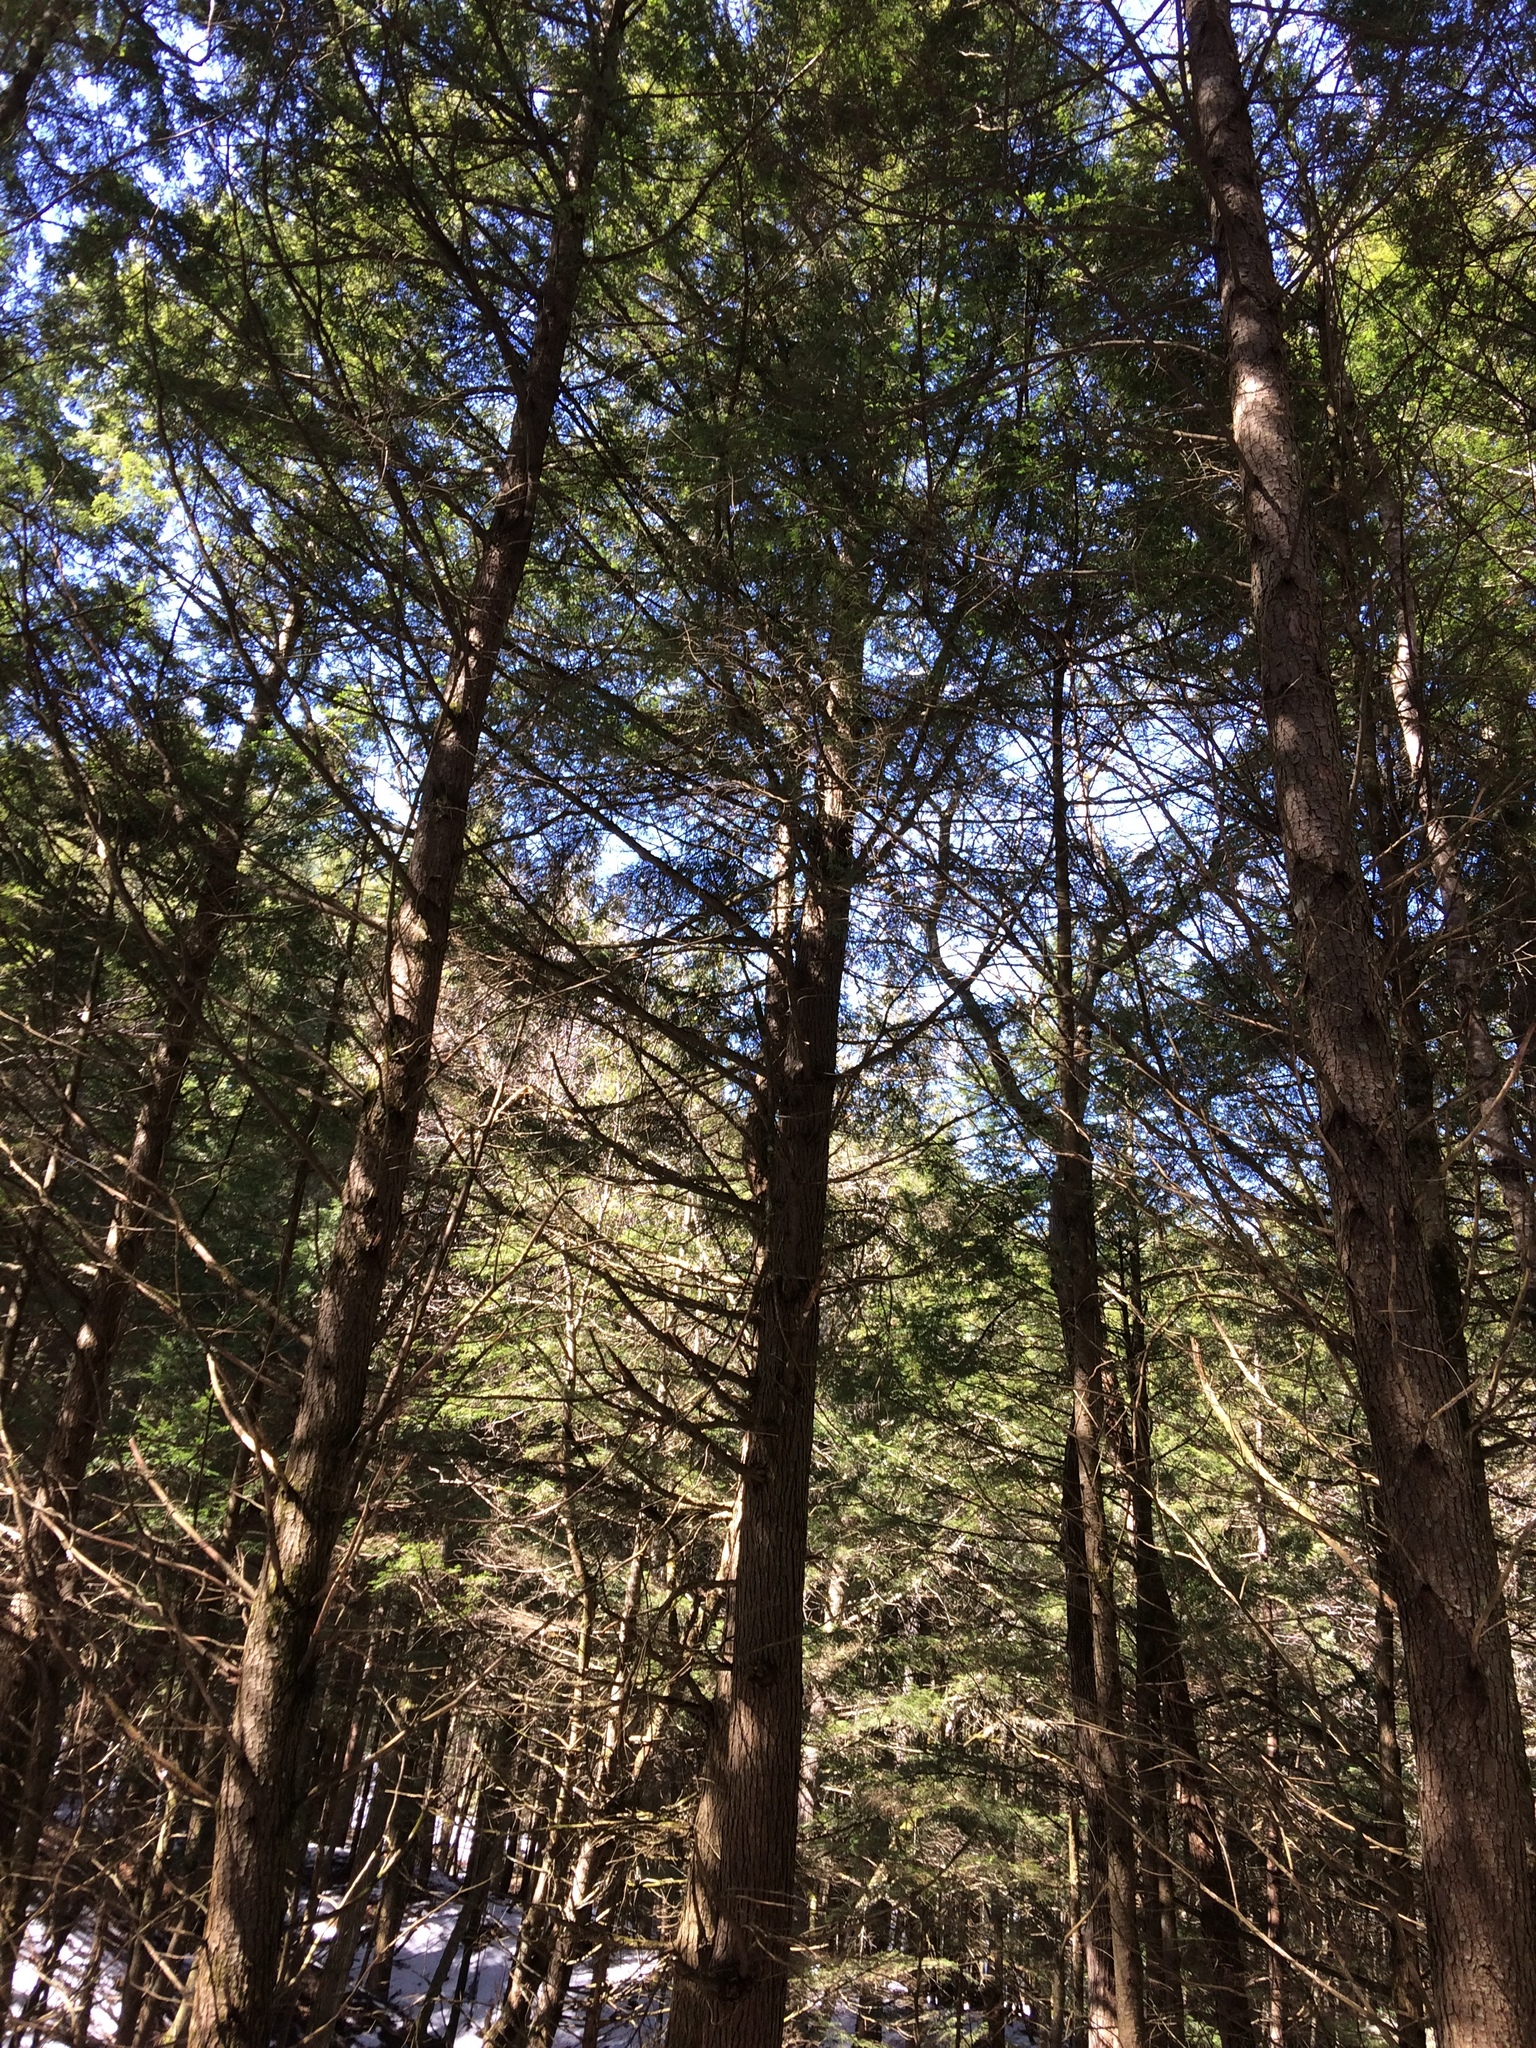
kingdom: Plantae
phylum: Tracheophyta
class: Pinopsida
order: Pinales
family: Pinaceae
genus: Tsuga
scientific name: Tsuga canadensis
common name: Eastern hemlock
